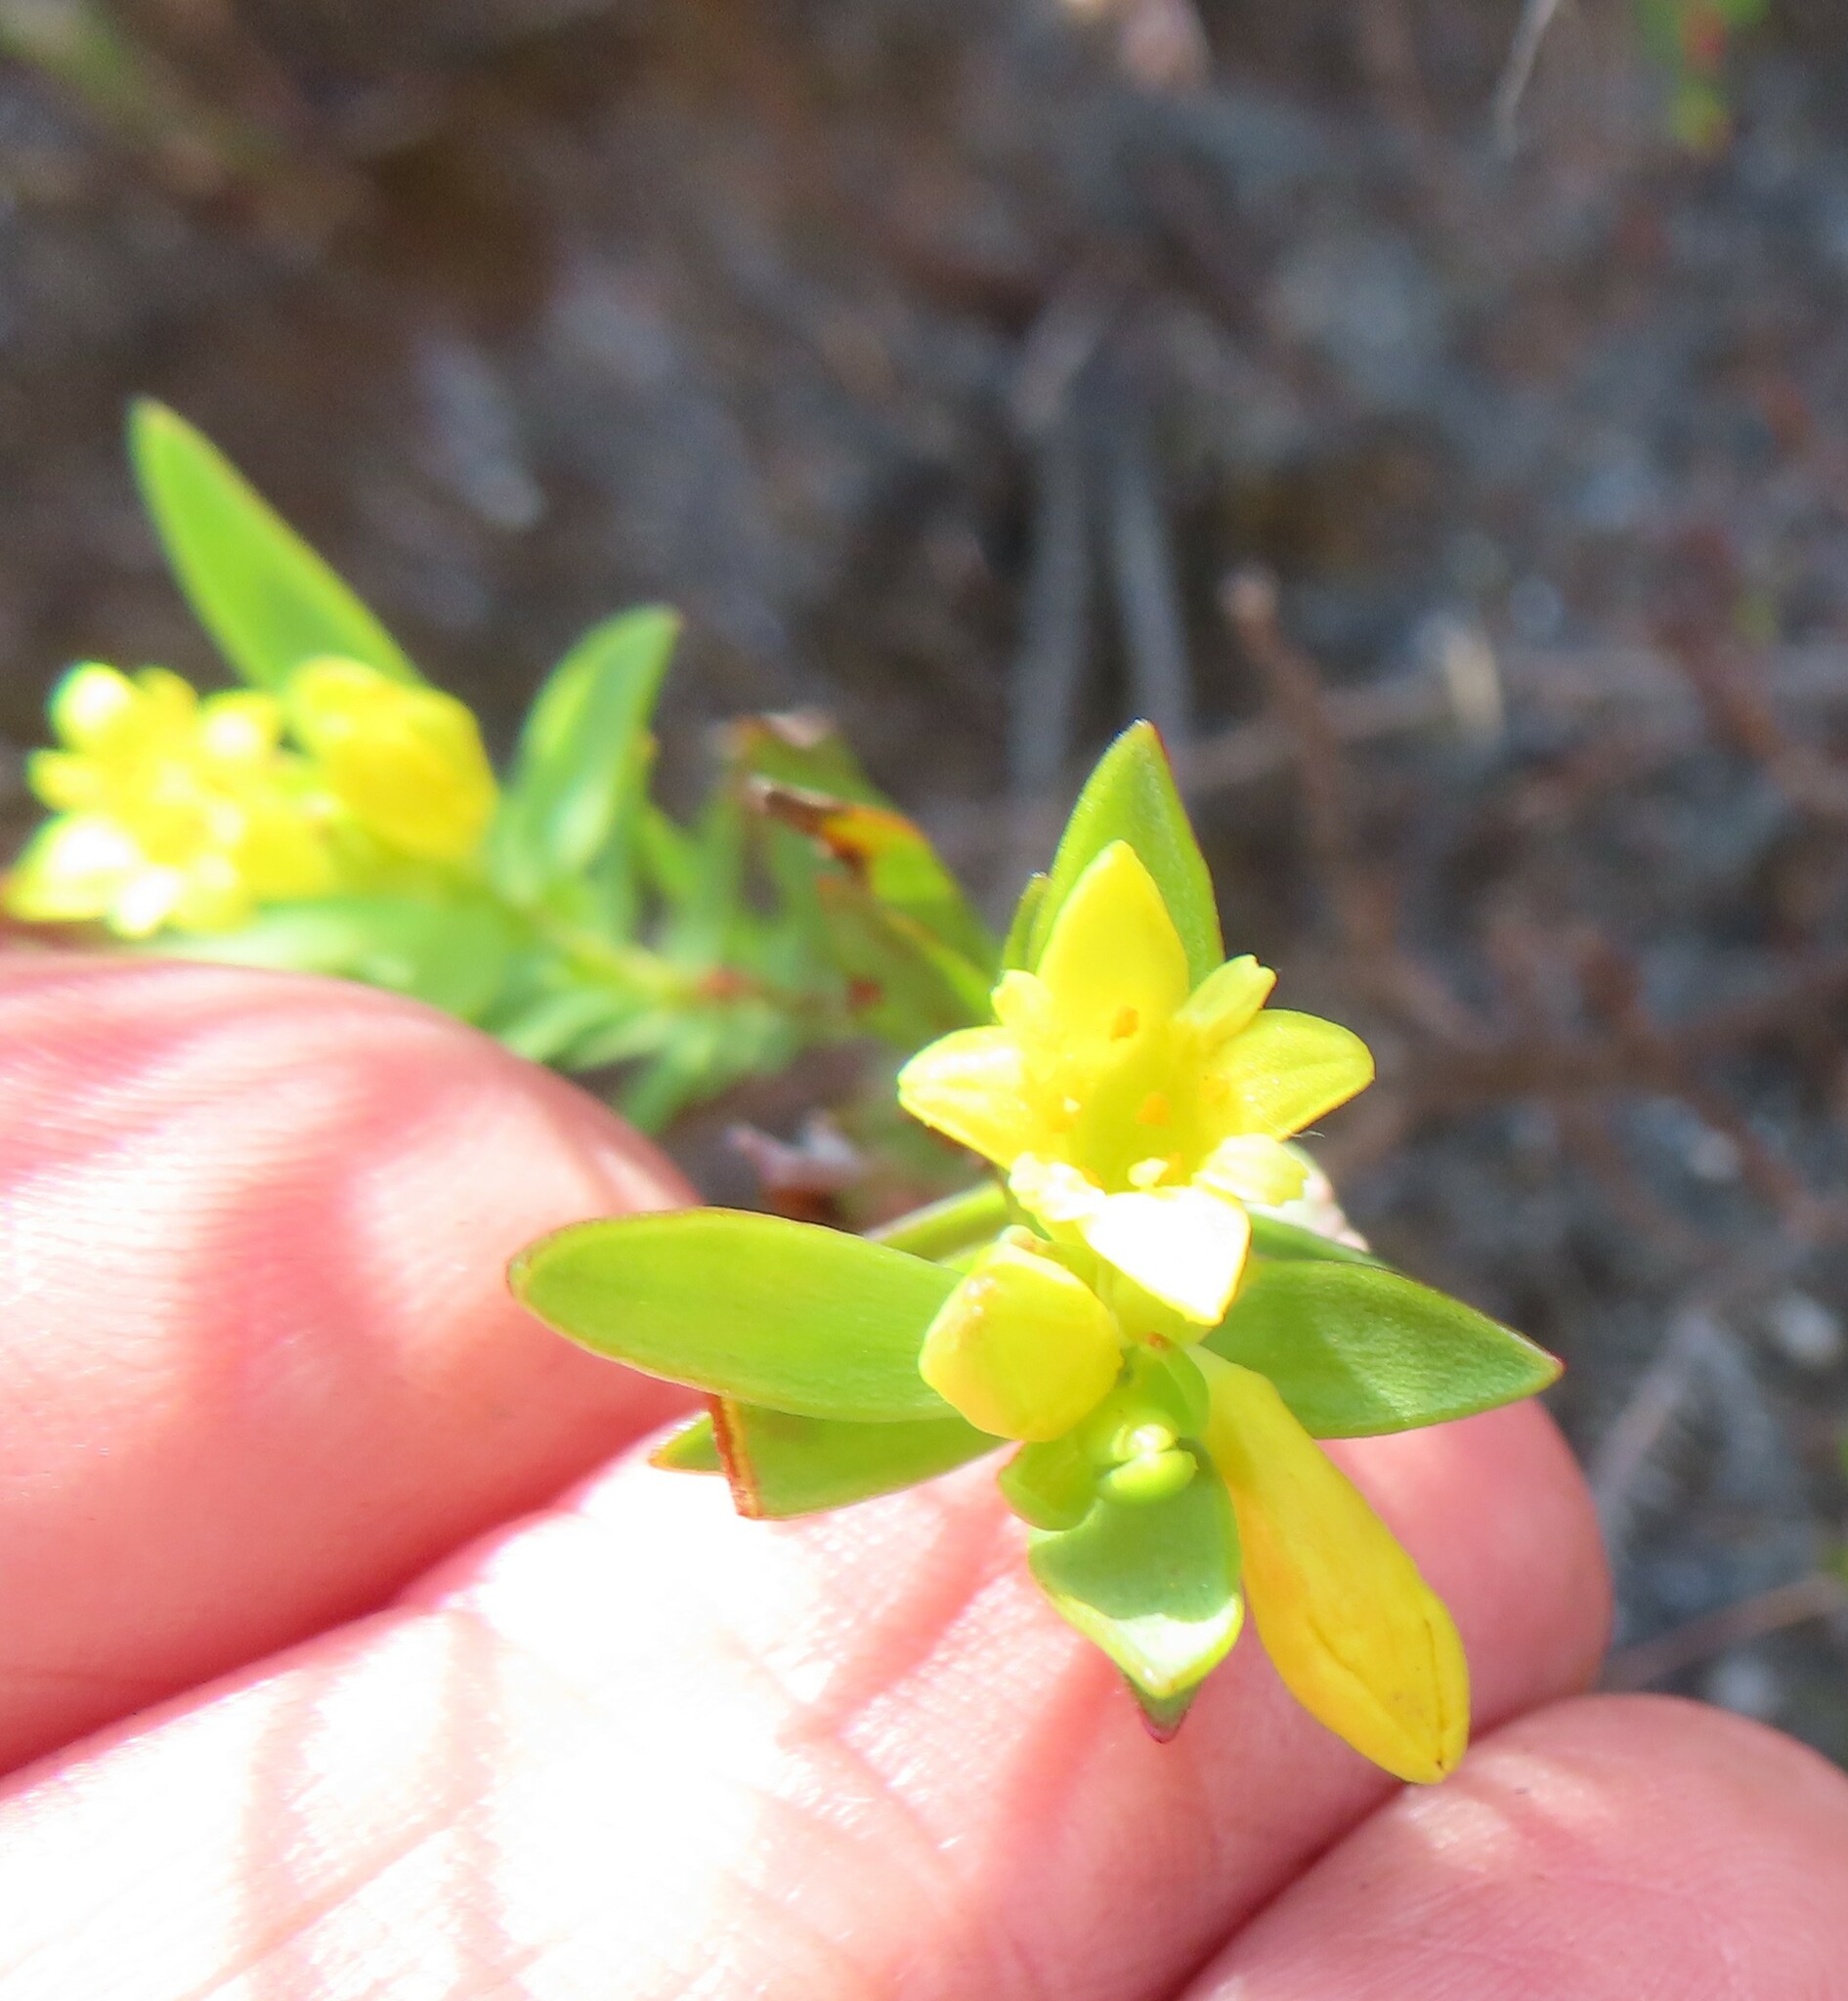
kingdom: Plantae
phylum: Tracheophyta
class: Magnoliopsida
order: Malvales
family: Thymelaeaceae
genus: Gnidia
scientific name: Gnidia juniperifolia
